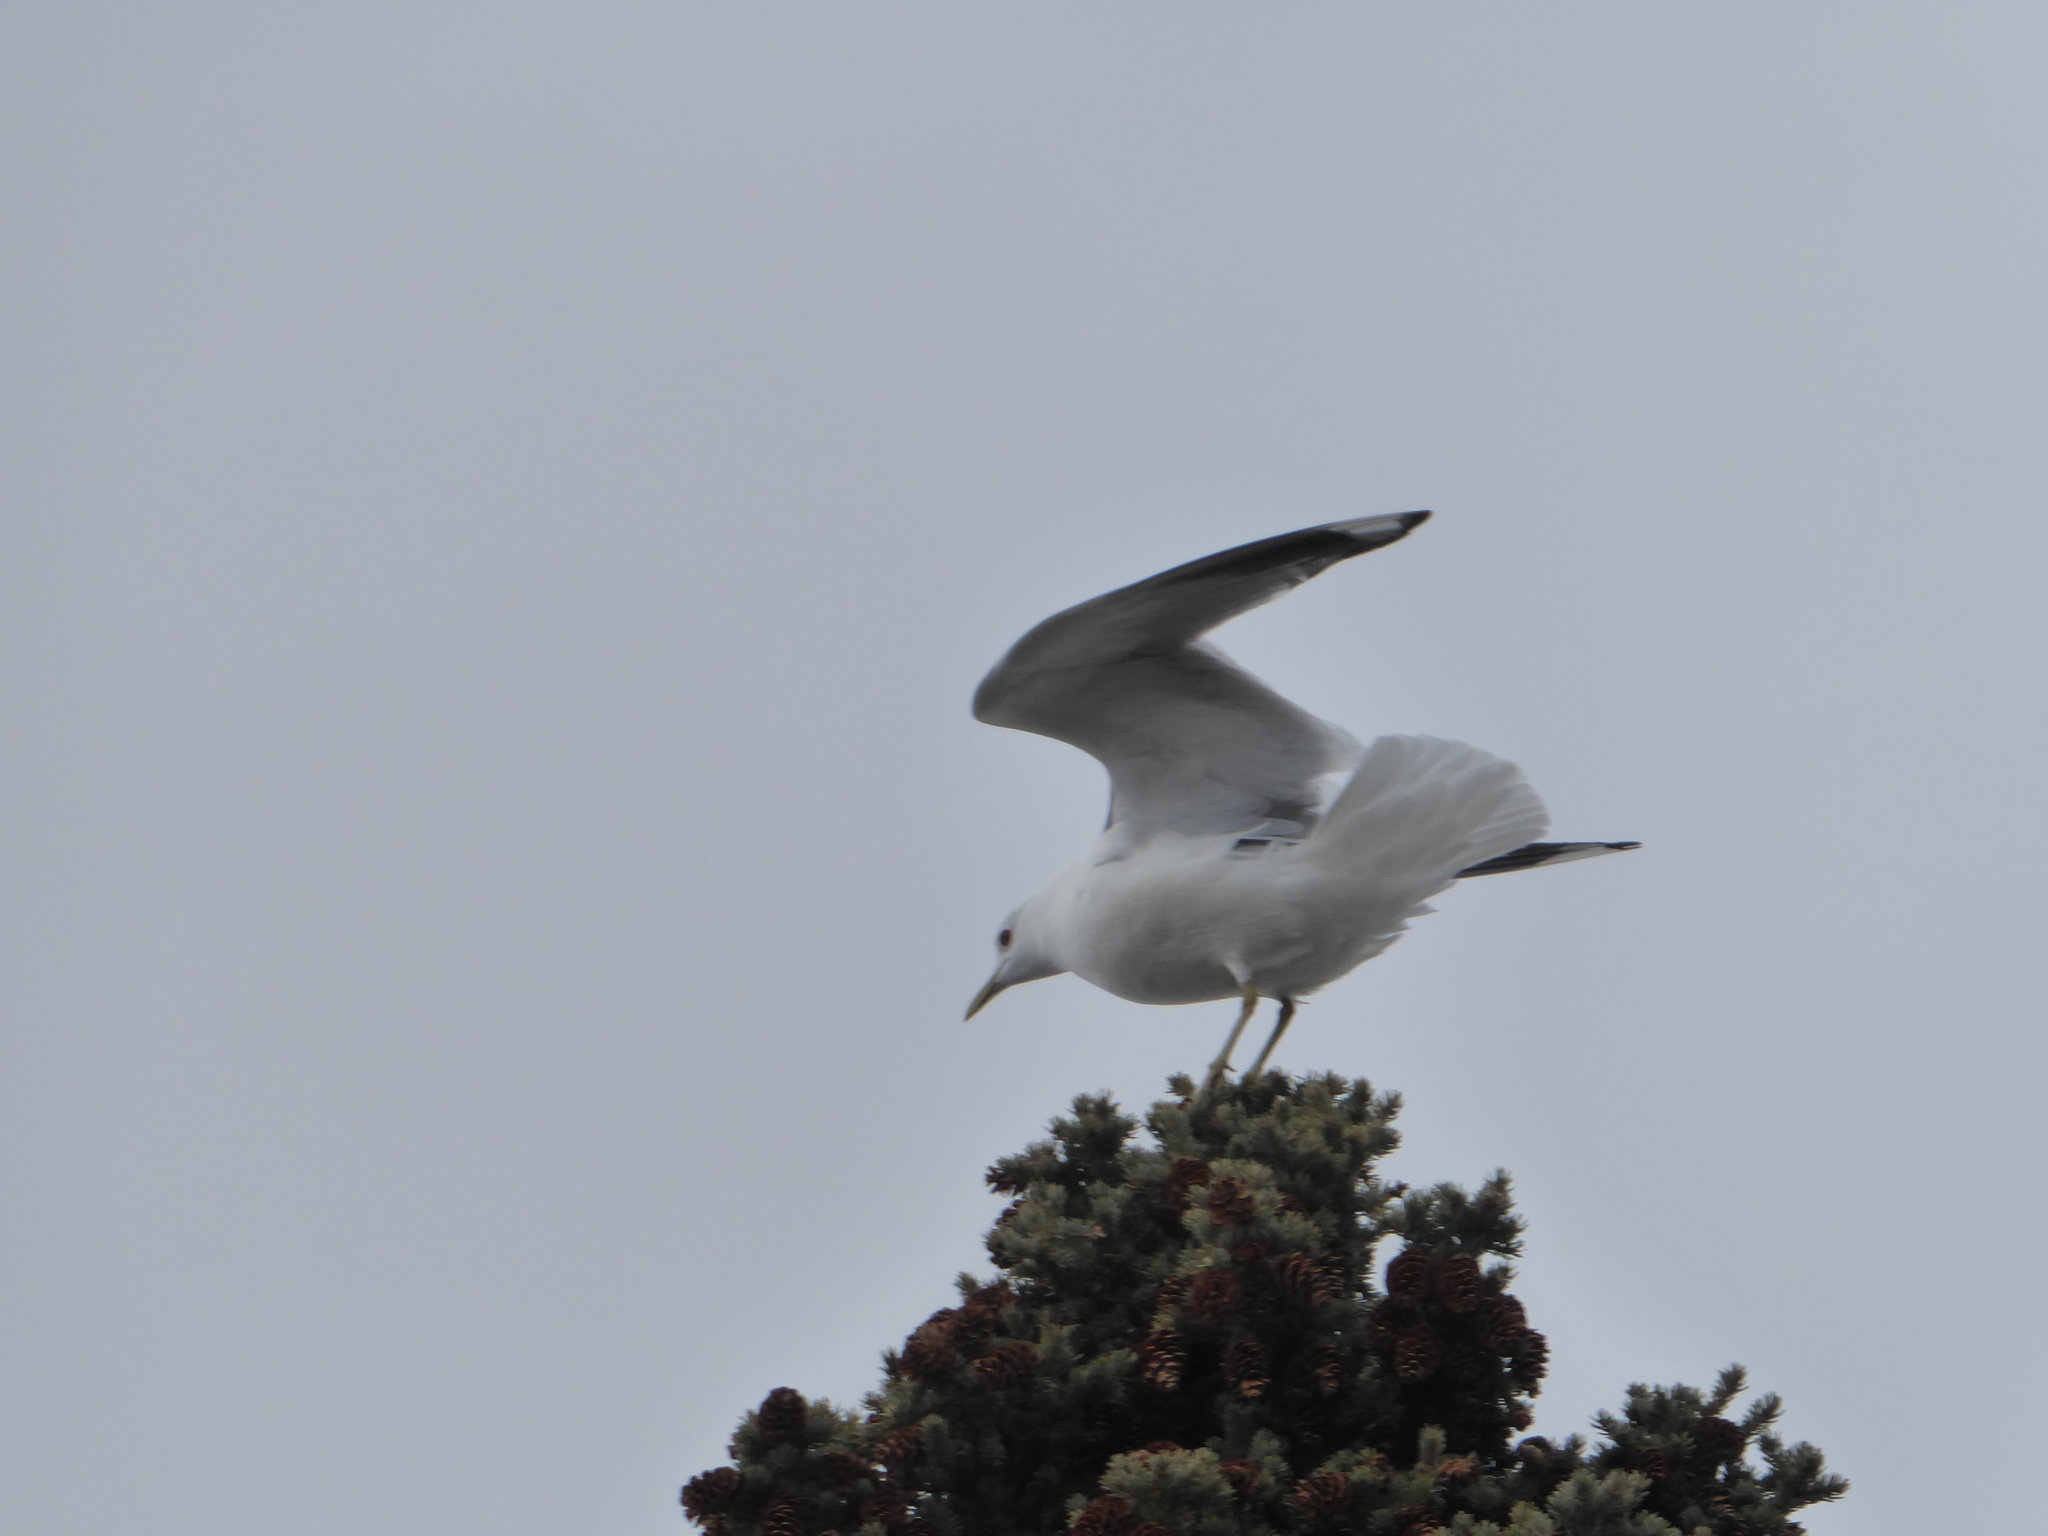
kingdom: Animalia
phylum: Chordata
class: Aves
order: Charadriiformes
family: Laridae
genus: Larus
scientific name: Larus brachyrhynchus
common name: Short-billed gull
